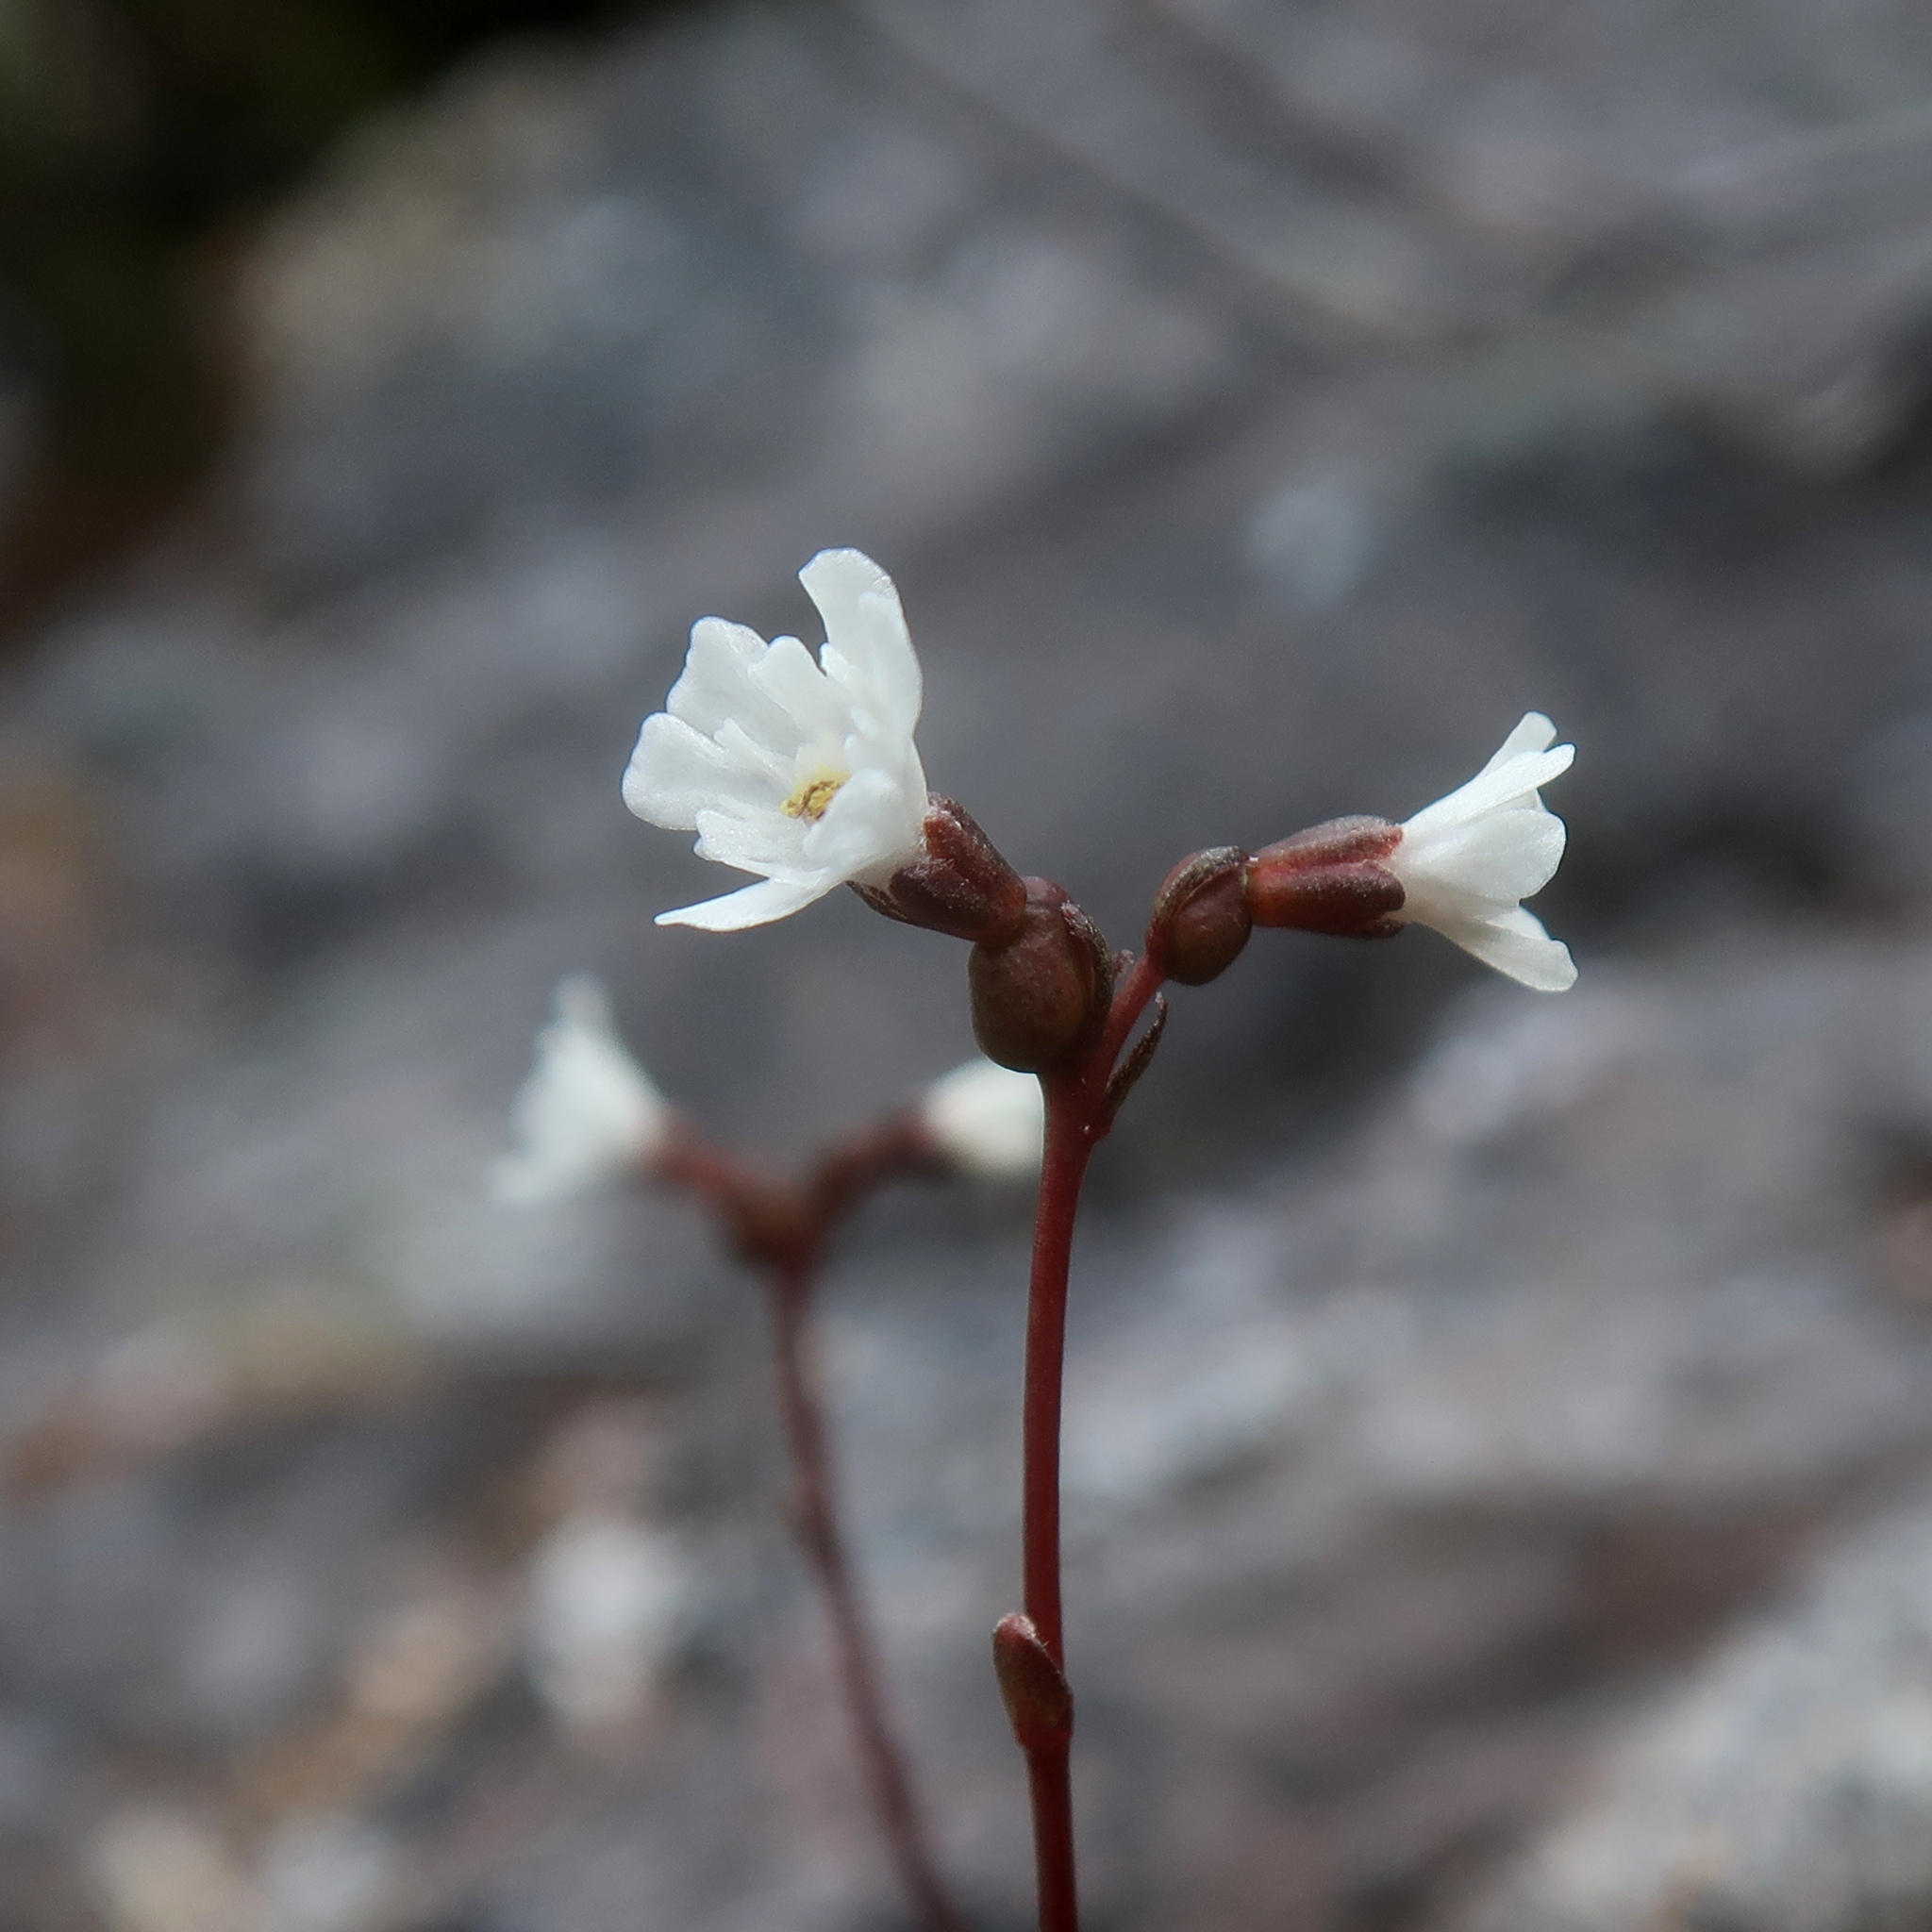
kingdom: Plantae
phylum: Tracheophyta
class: Magnoliopsida
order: Asterales
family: Stylidiaceae
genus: Forstera
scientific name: Forstera bellidifolia
